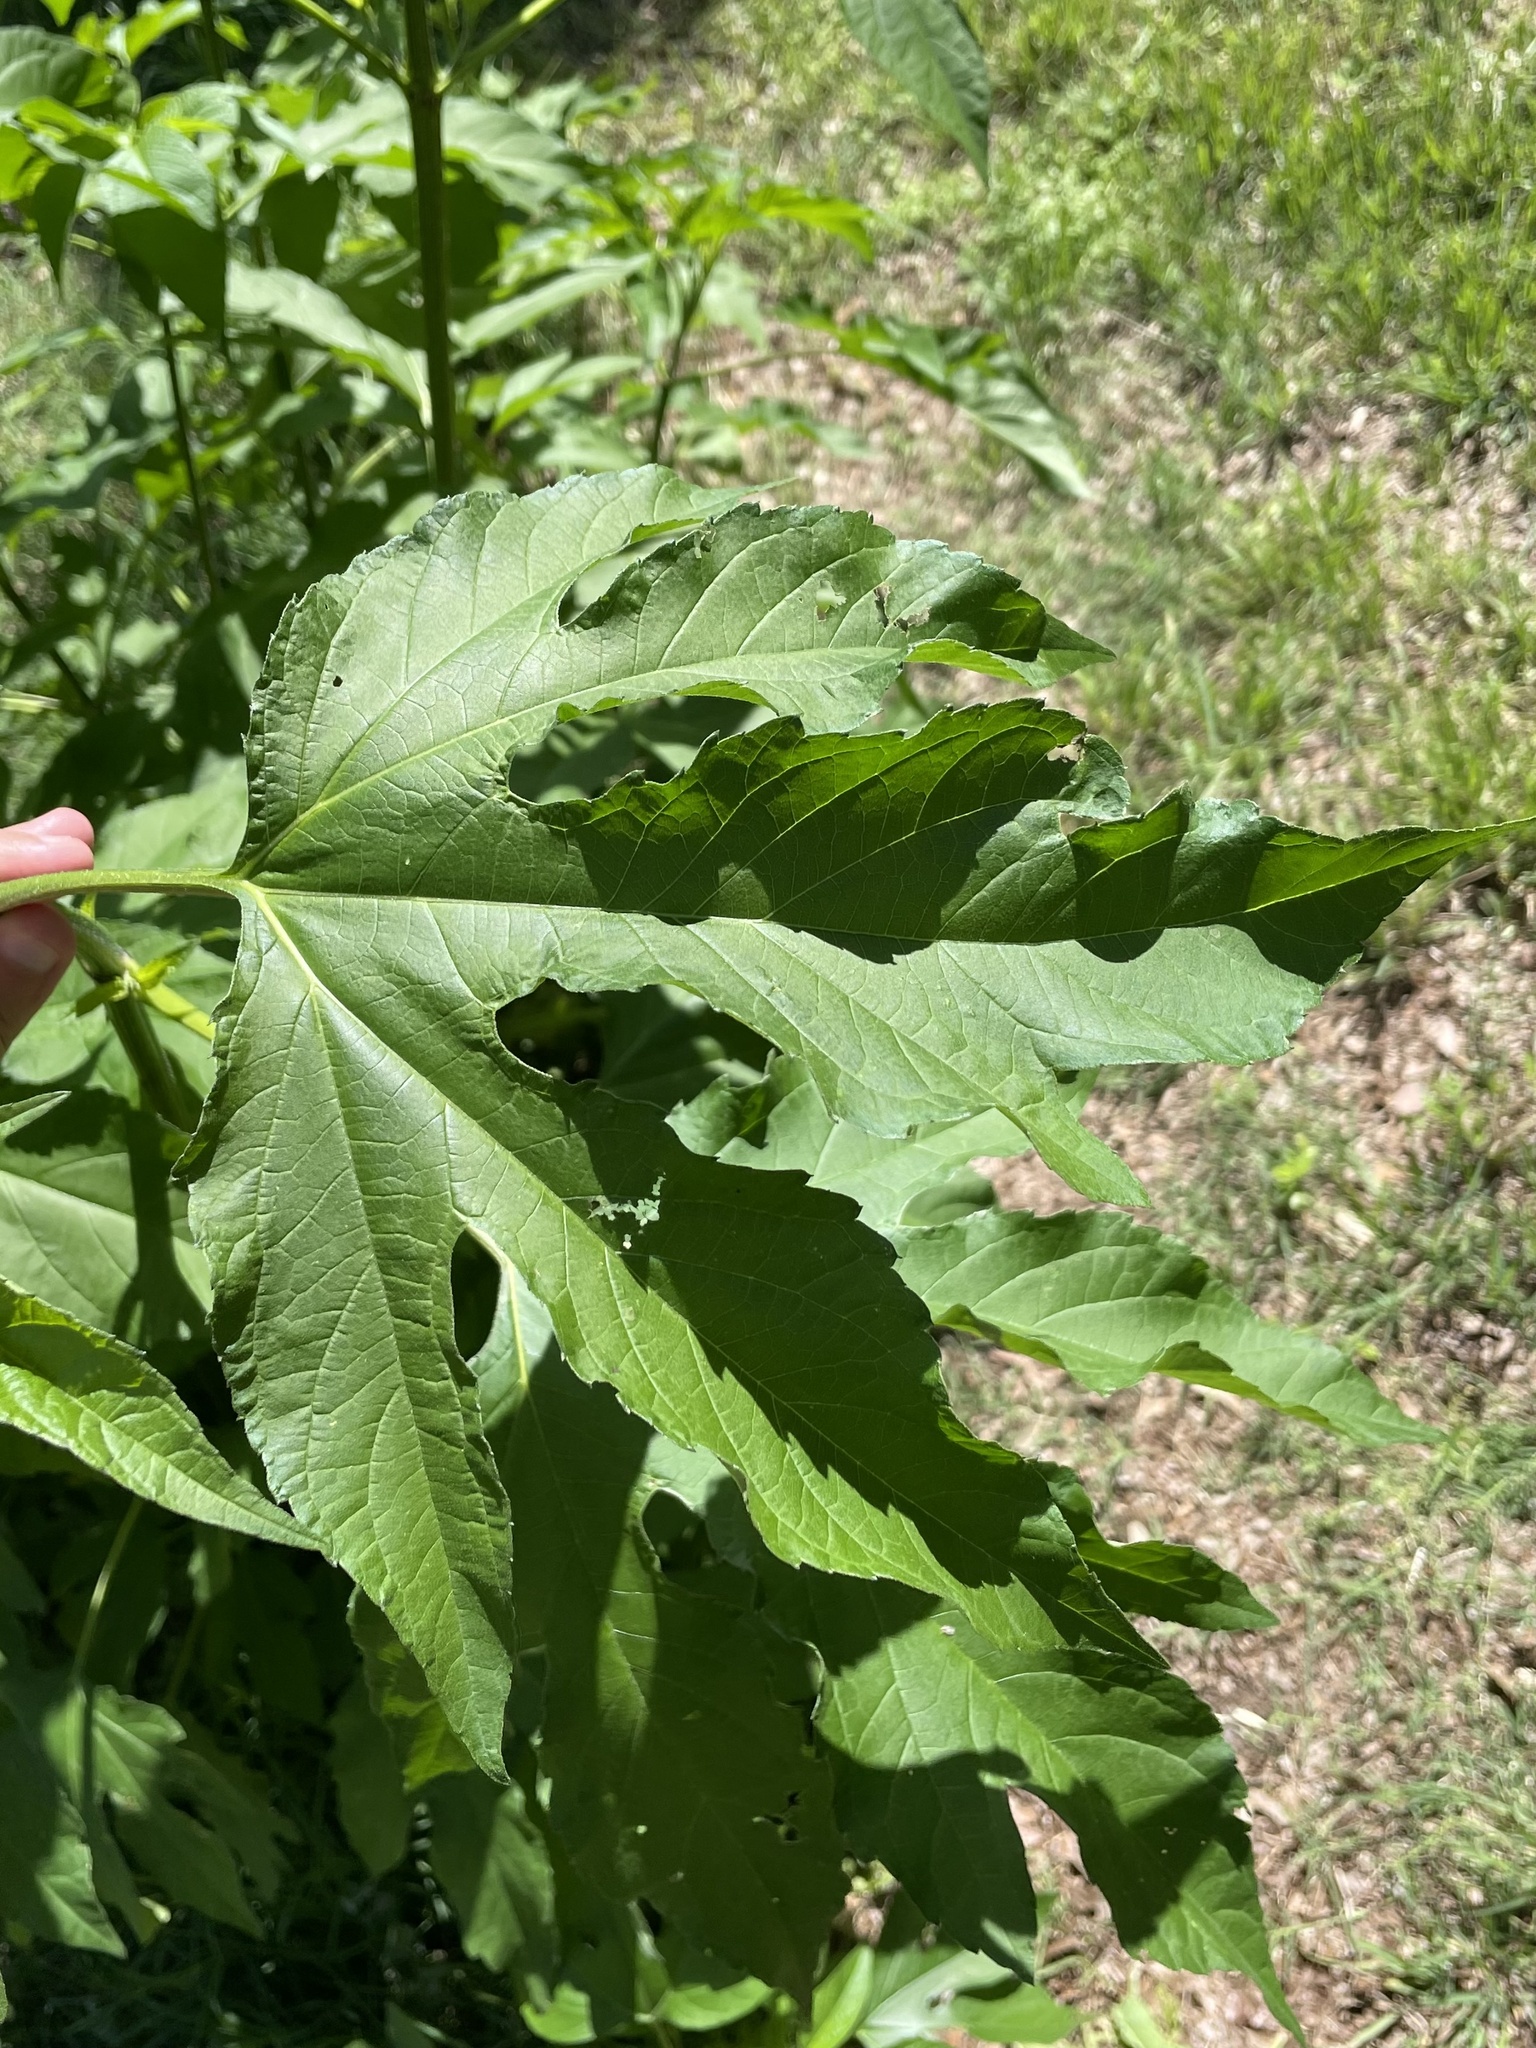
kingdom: Plantae
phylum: Tracheophyta
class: Magnoliopsida
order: Asterales
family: Asteraceae
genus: Ambrosia
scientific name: Ambrosia trifida
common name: Giant ragweed
